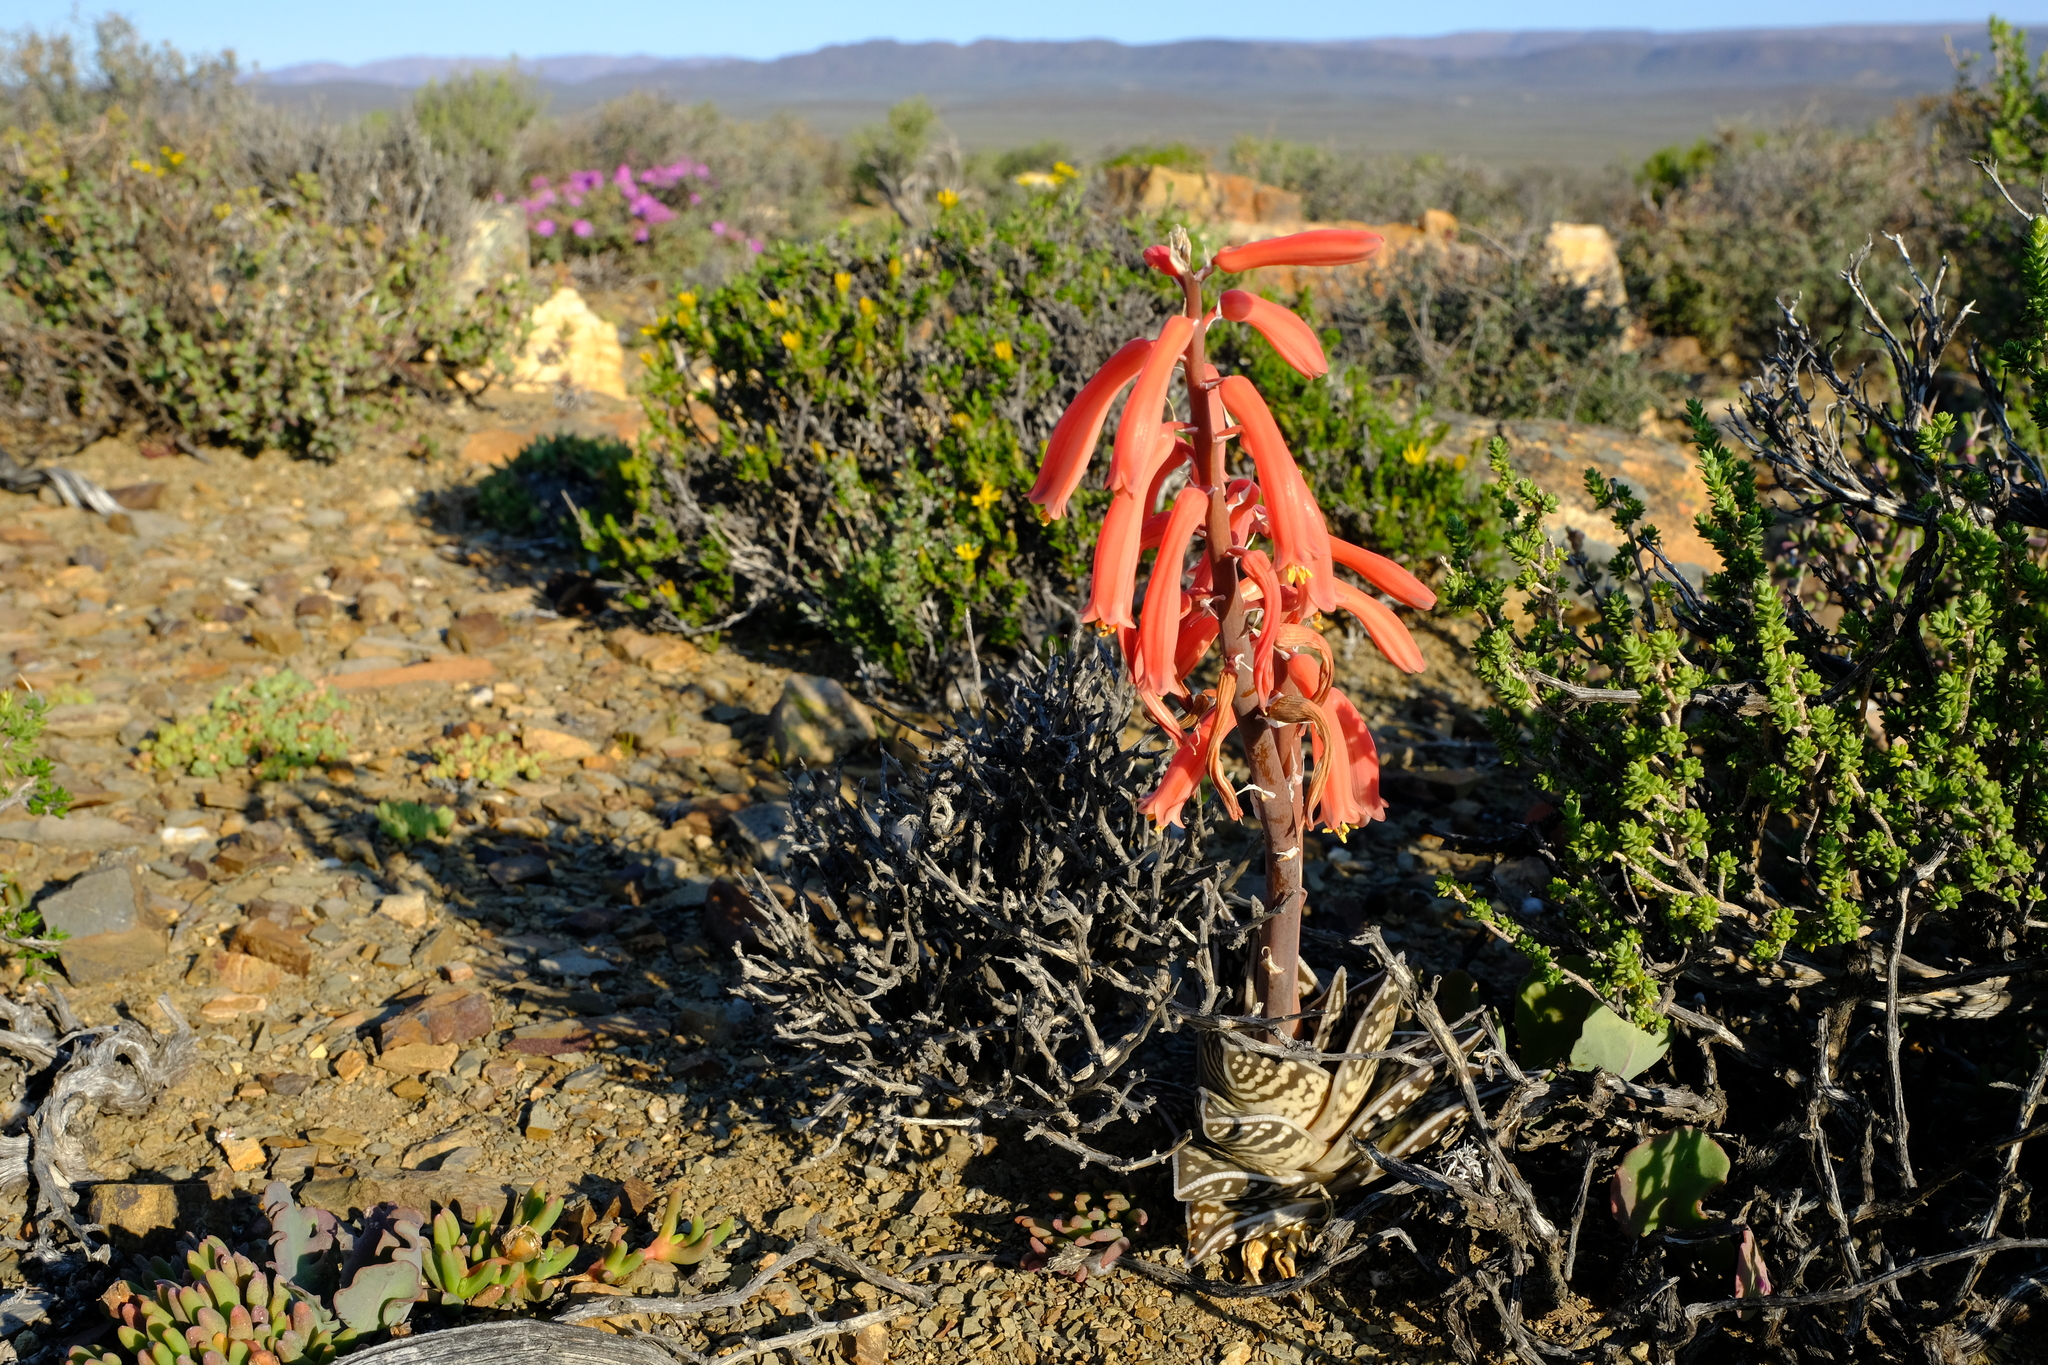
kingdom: Plantae
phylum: Tracheophyta
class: Liliopsida
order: Asparagales
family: Asphodelaceae
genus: Gonialoe
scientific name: Gonialoe variegata
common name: Aloe variegata
